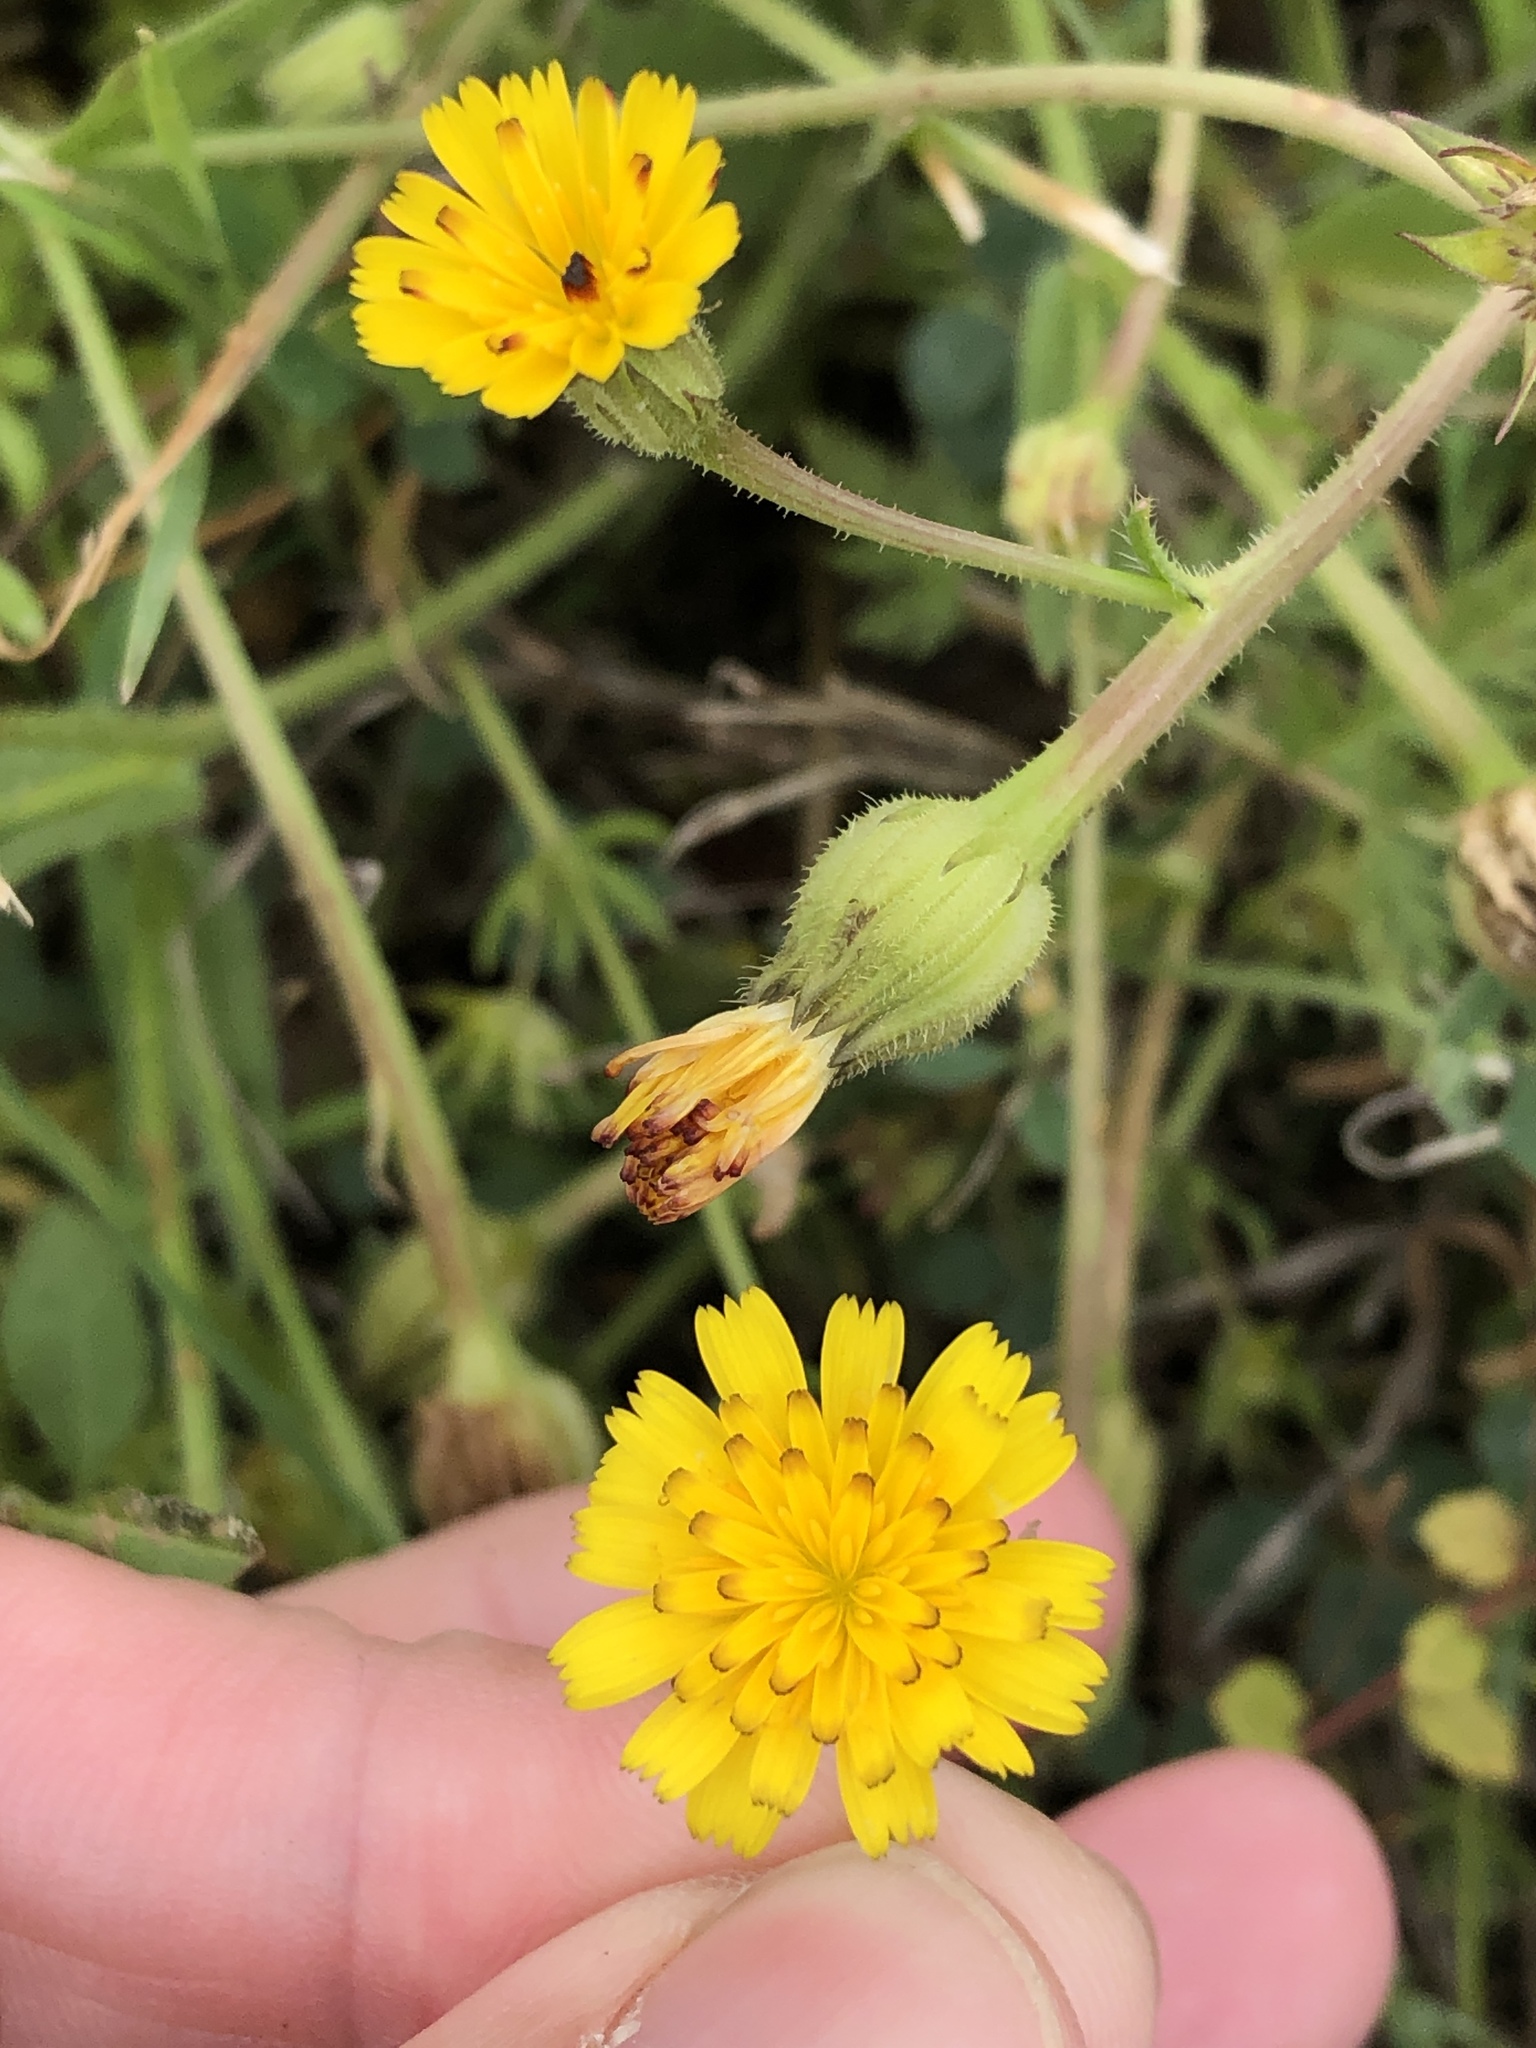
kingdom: Plantae
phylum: Tracheophyta
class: Magnoliopsida
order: Asterales
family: Asteraceae
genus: Hedypnois
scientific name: Hedypnois rhagadioloides
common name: Cretan weed
